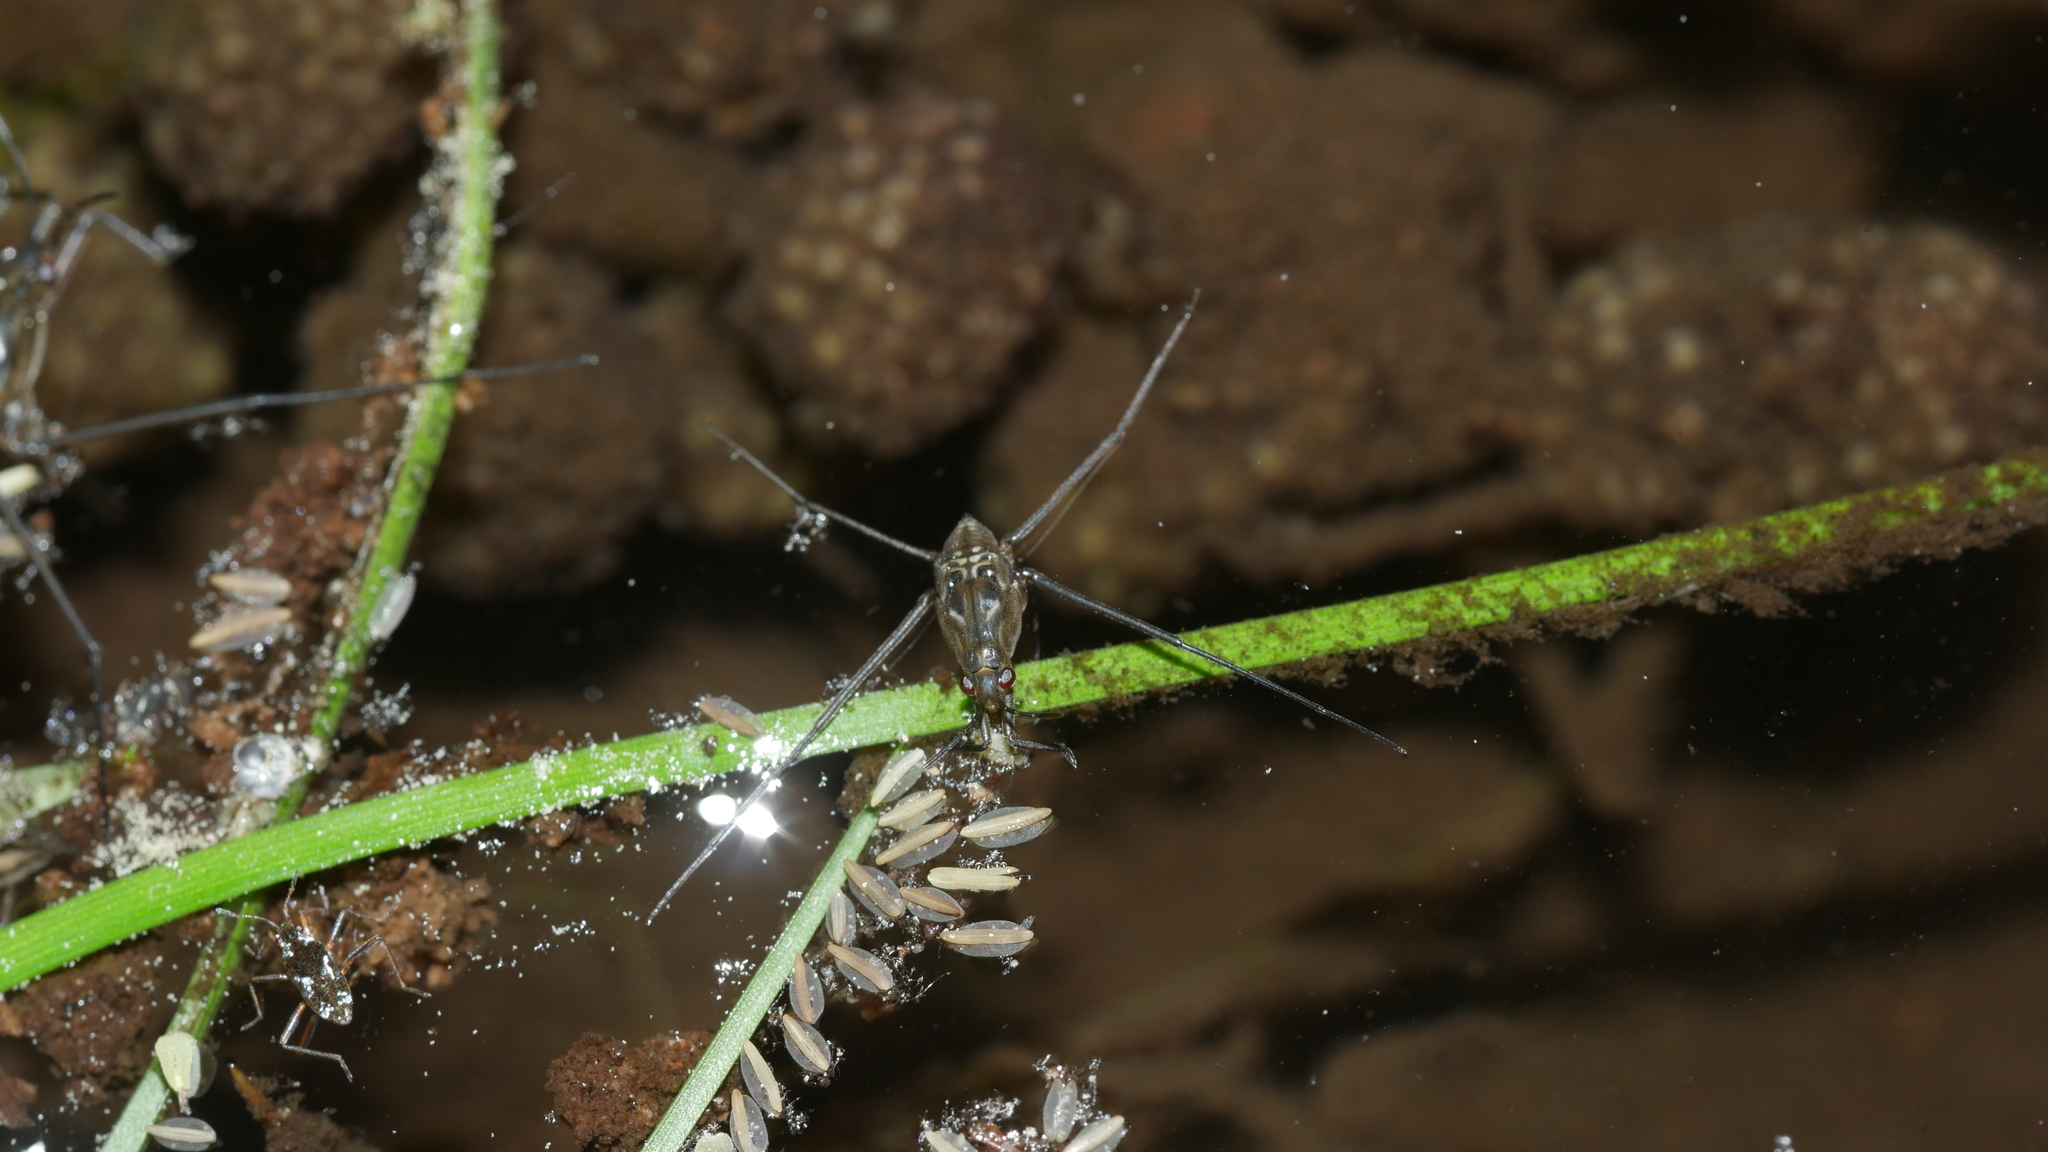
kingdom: Animalia
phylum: Arthropoda
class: Insecta
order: Hemiptera
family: Gerridae
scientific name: Gerridae
